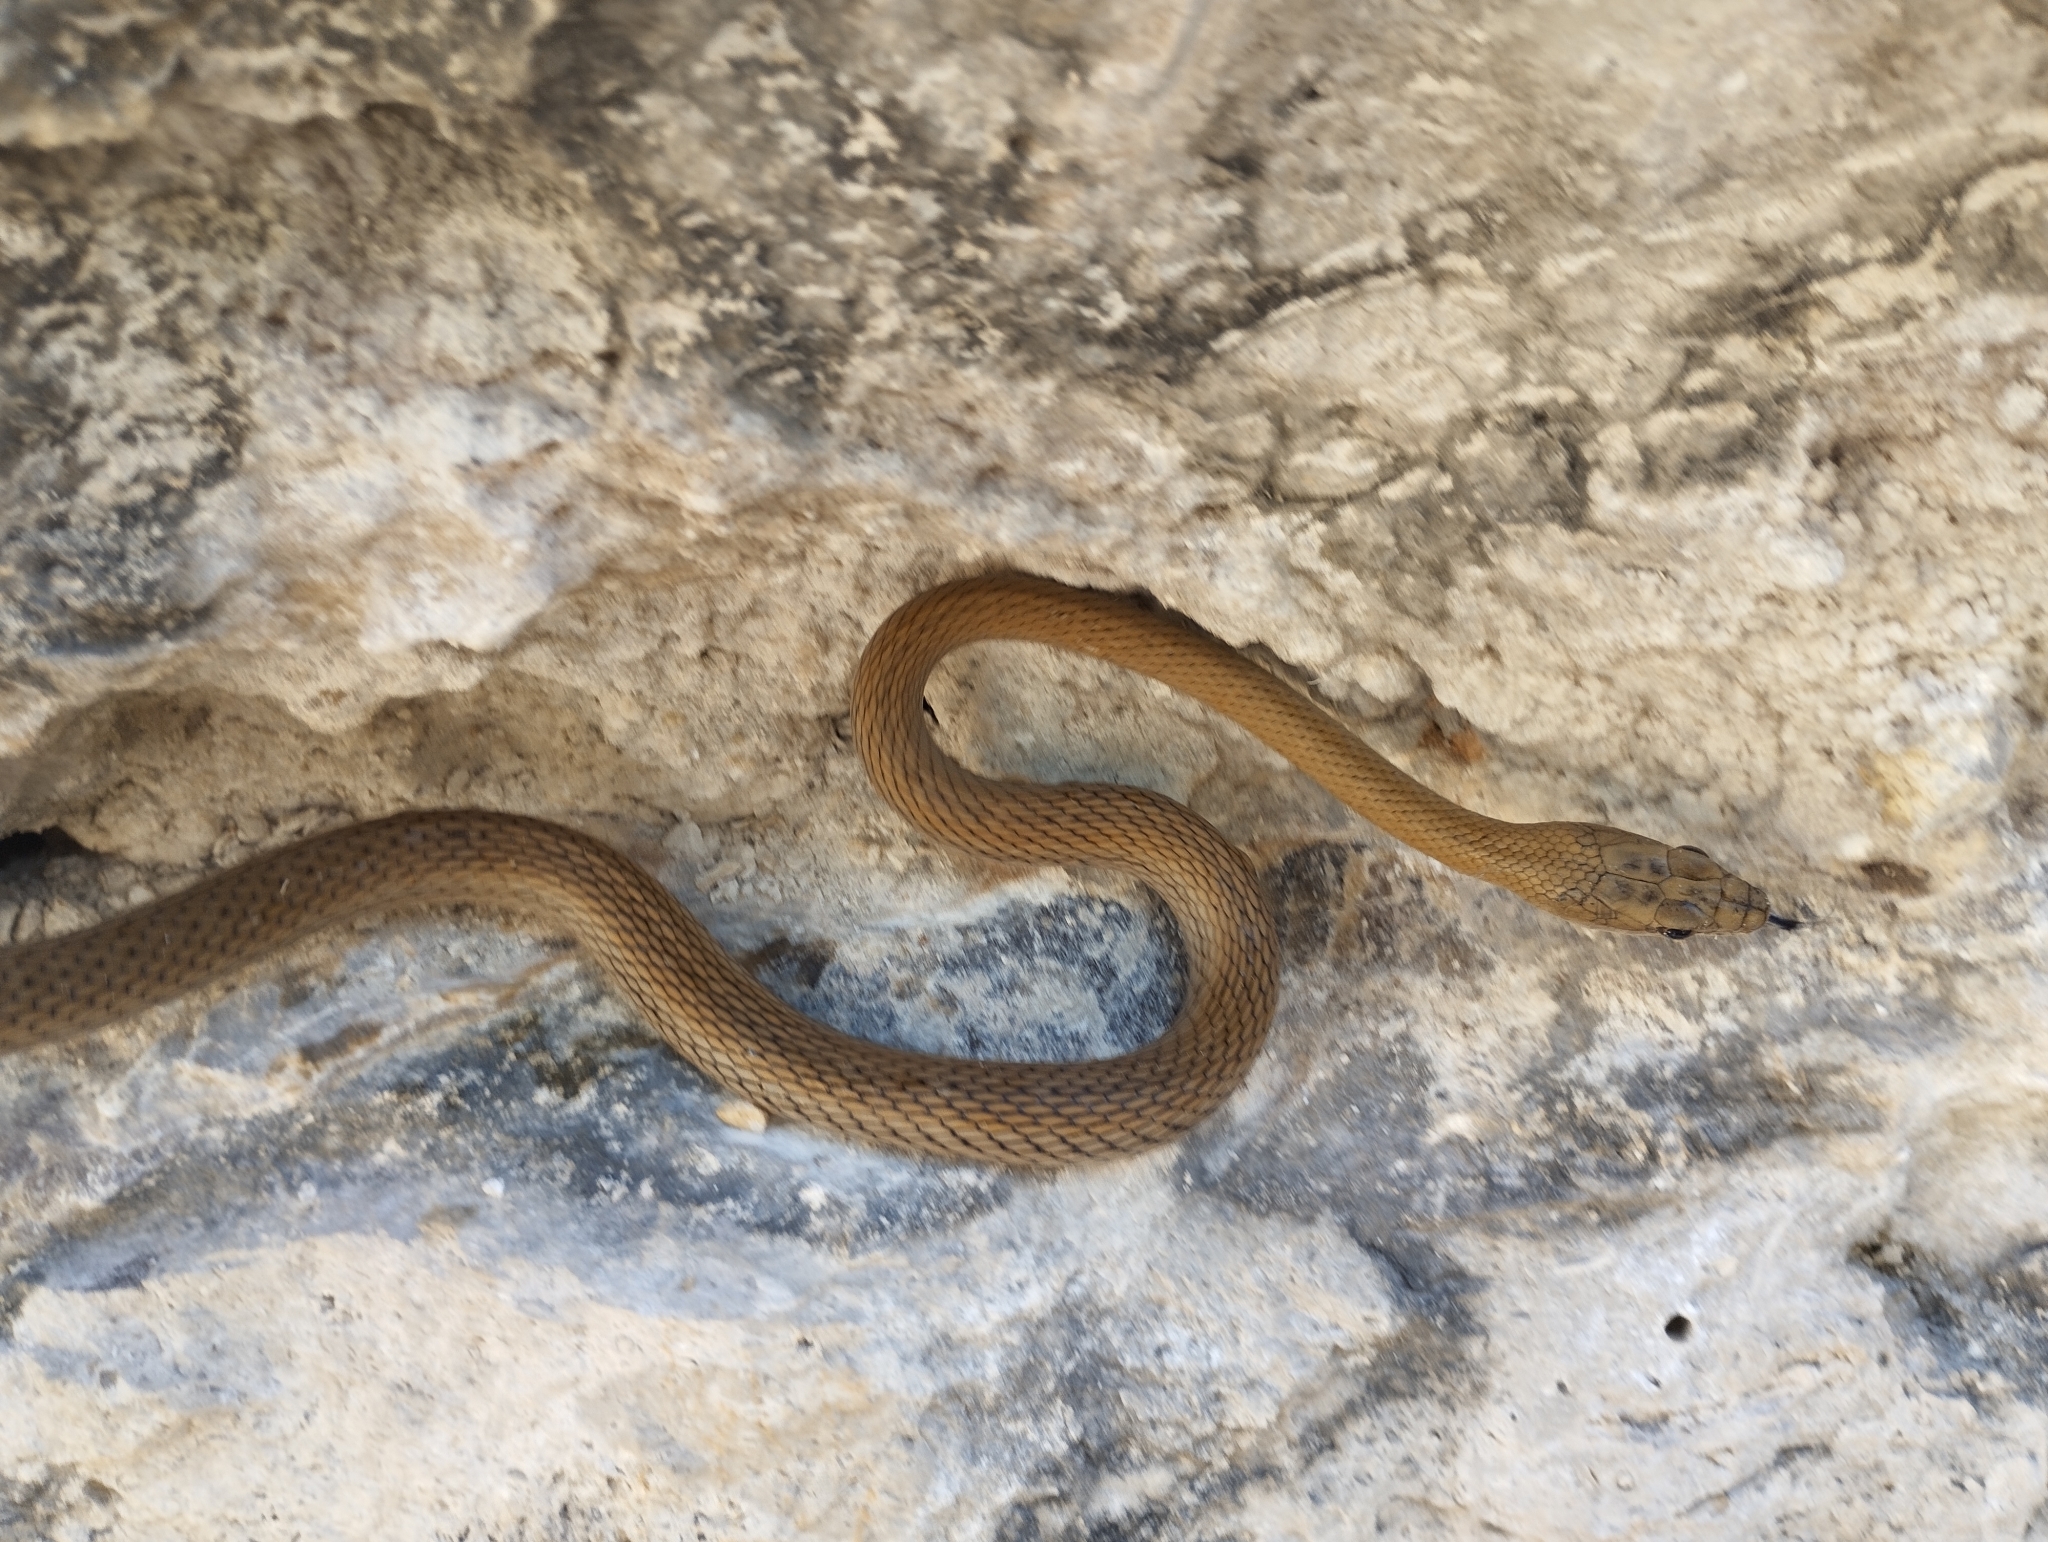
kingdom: Animalia
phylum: Chordata
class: Squamata
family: Colubridae
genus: Mastigodryas
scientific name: Mastigodryas melanolomus
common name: Salmon-bellied racer
